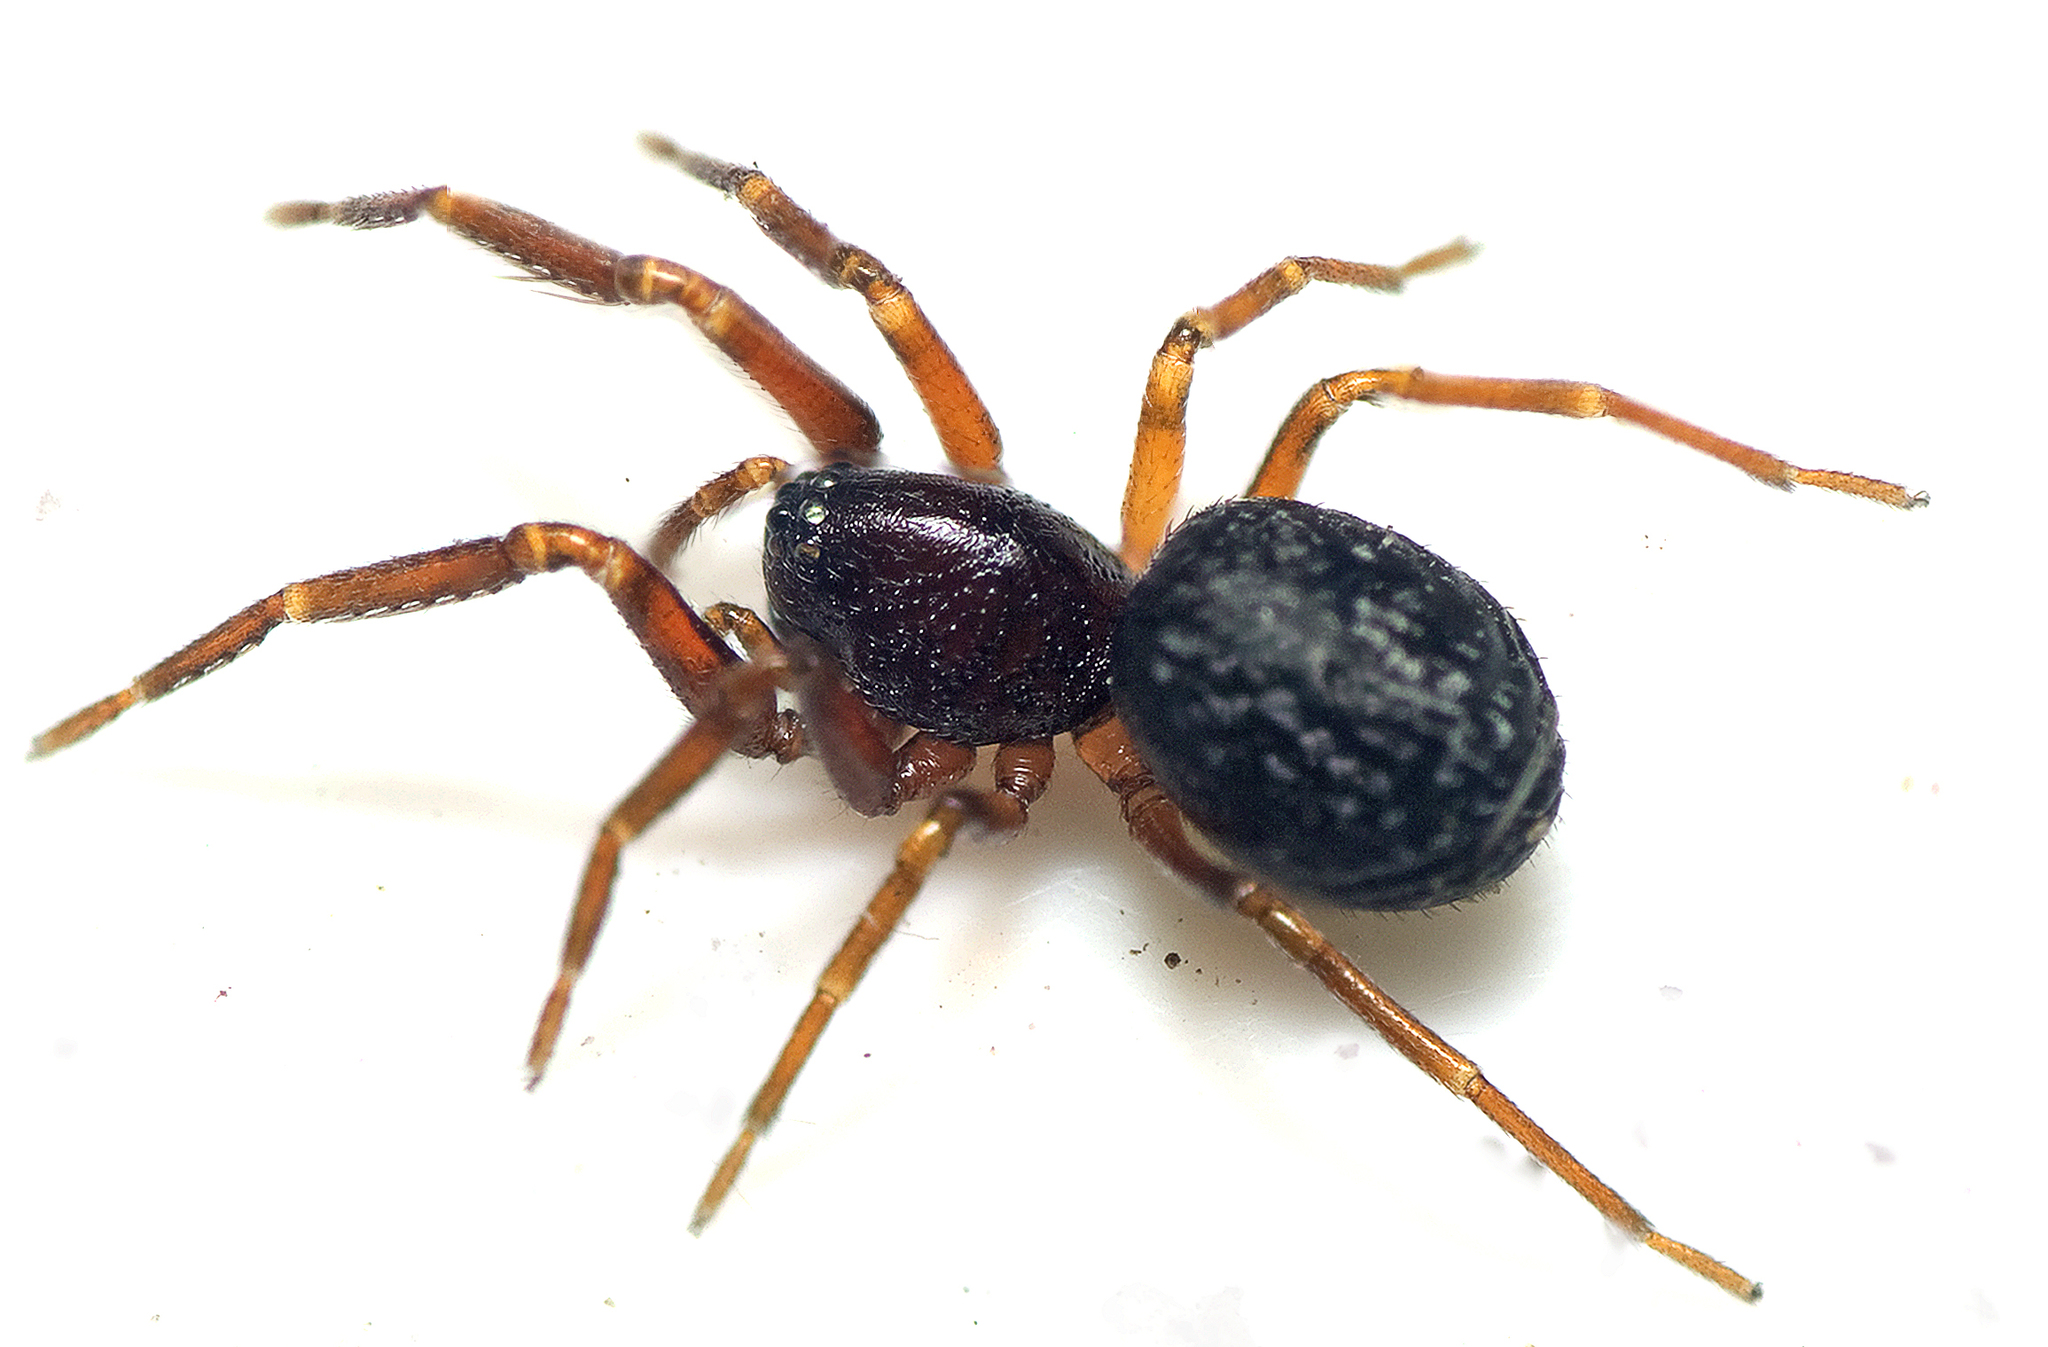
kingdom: Animalia
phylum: Arthropoda
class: Arachnida
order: Araneae
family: Trachelidae
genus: Orthobula
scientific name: Orthobula
